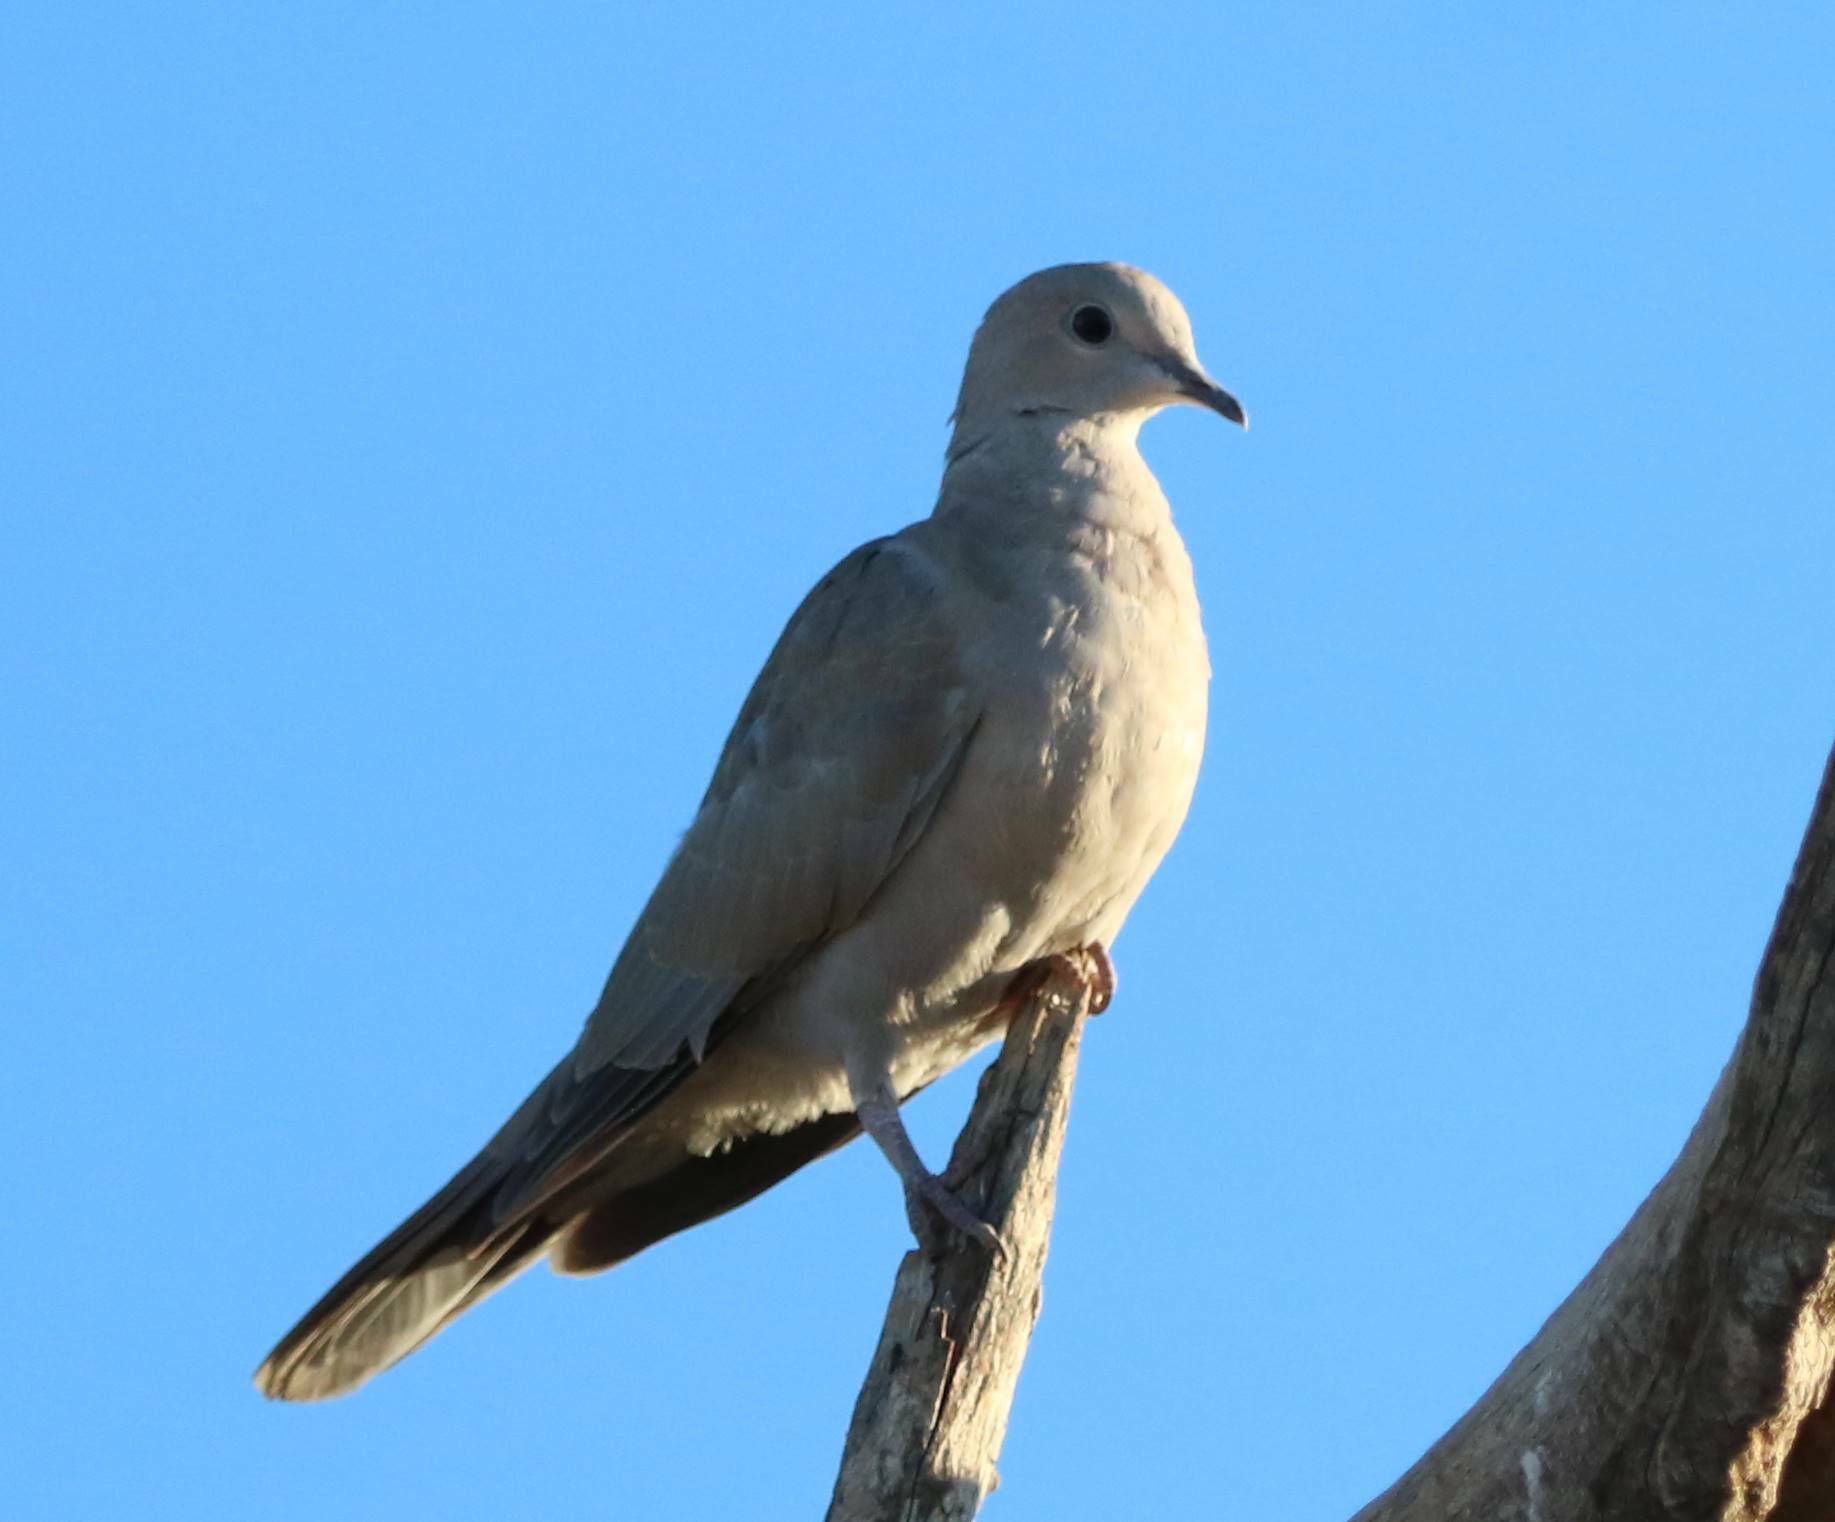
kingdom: Animalia
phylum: Chordata
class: Aves
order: Columbiformes
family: Columbidae
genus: Streptopelia
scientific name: Streptopelia decaocto
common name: Eurasian collared dove
